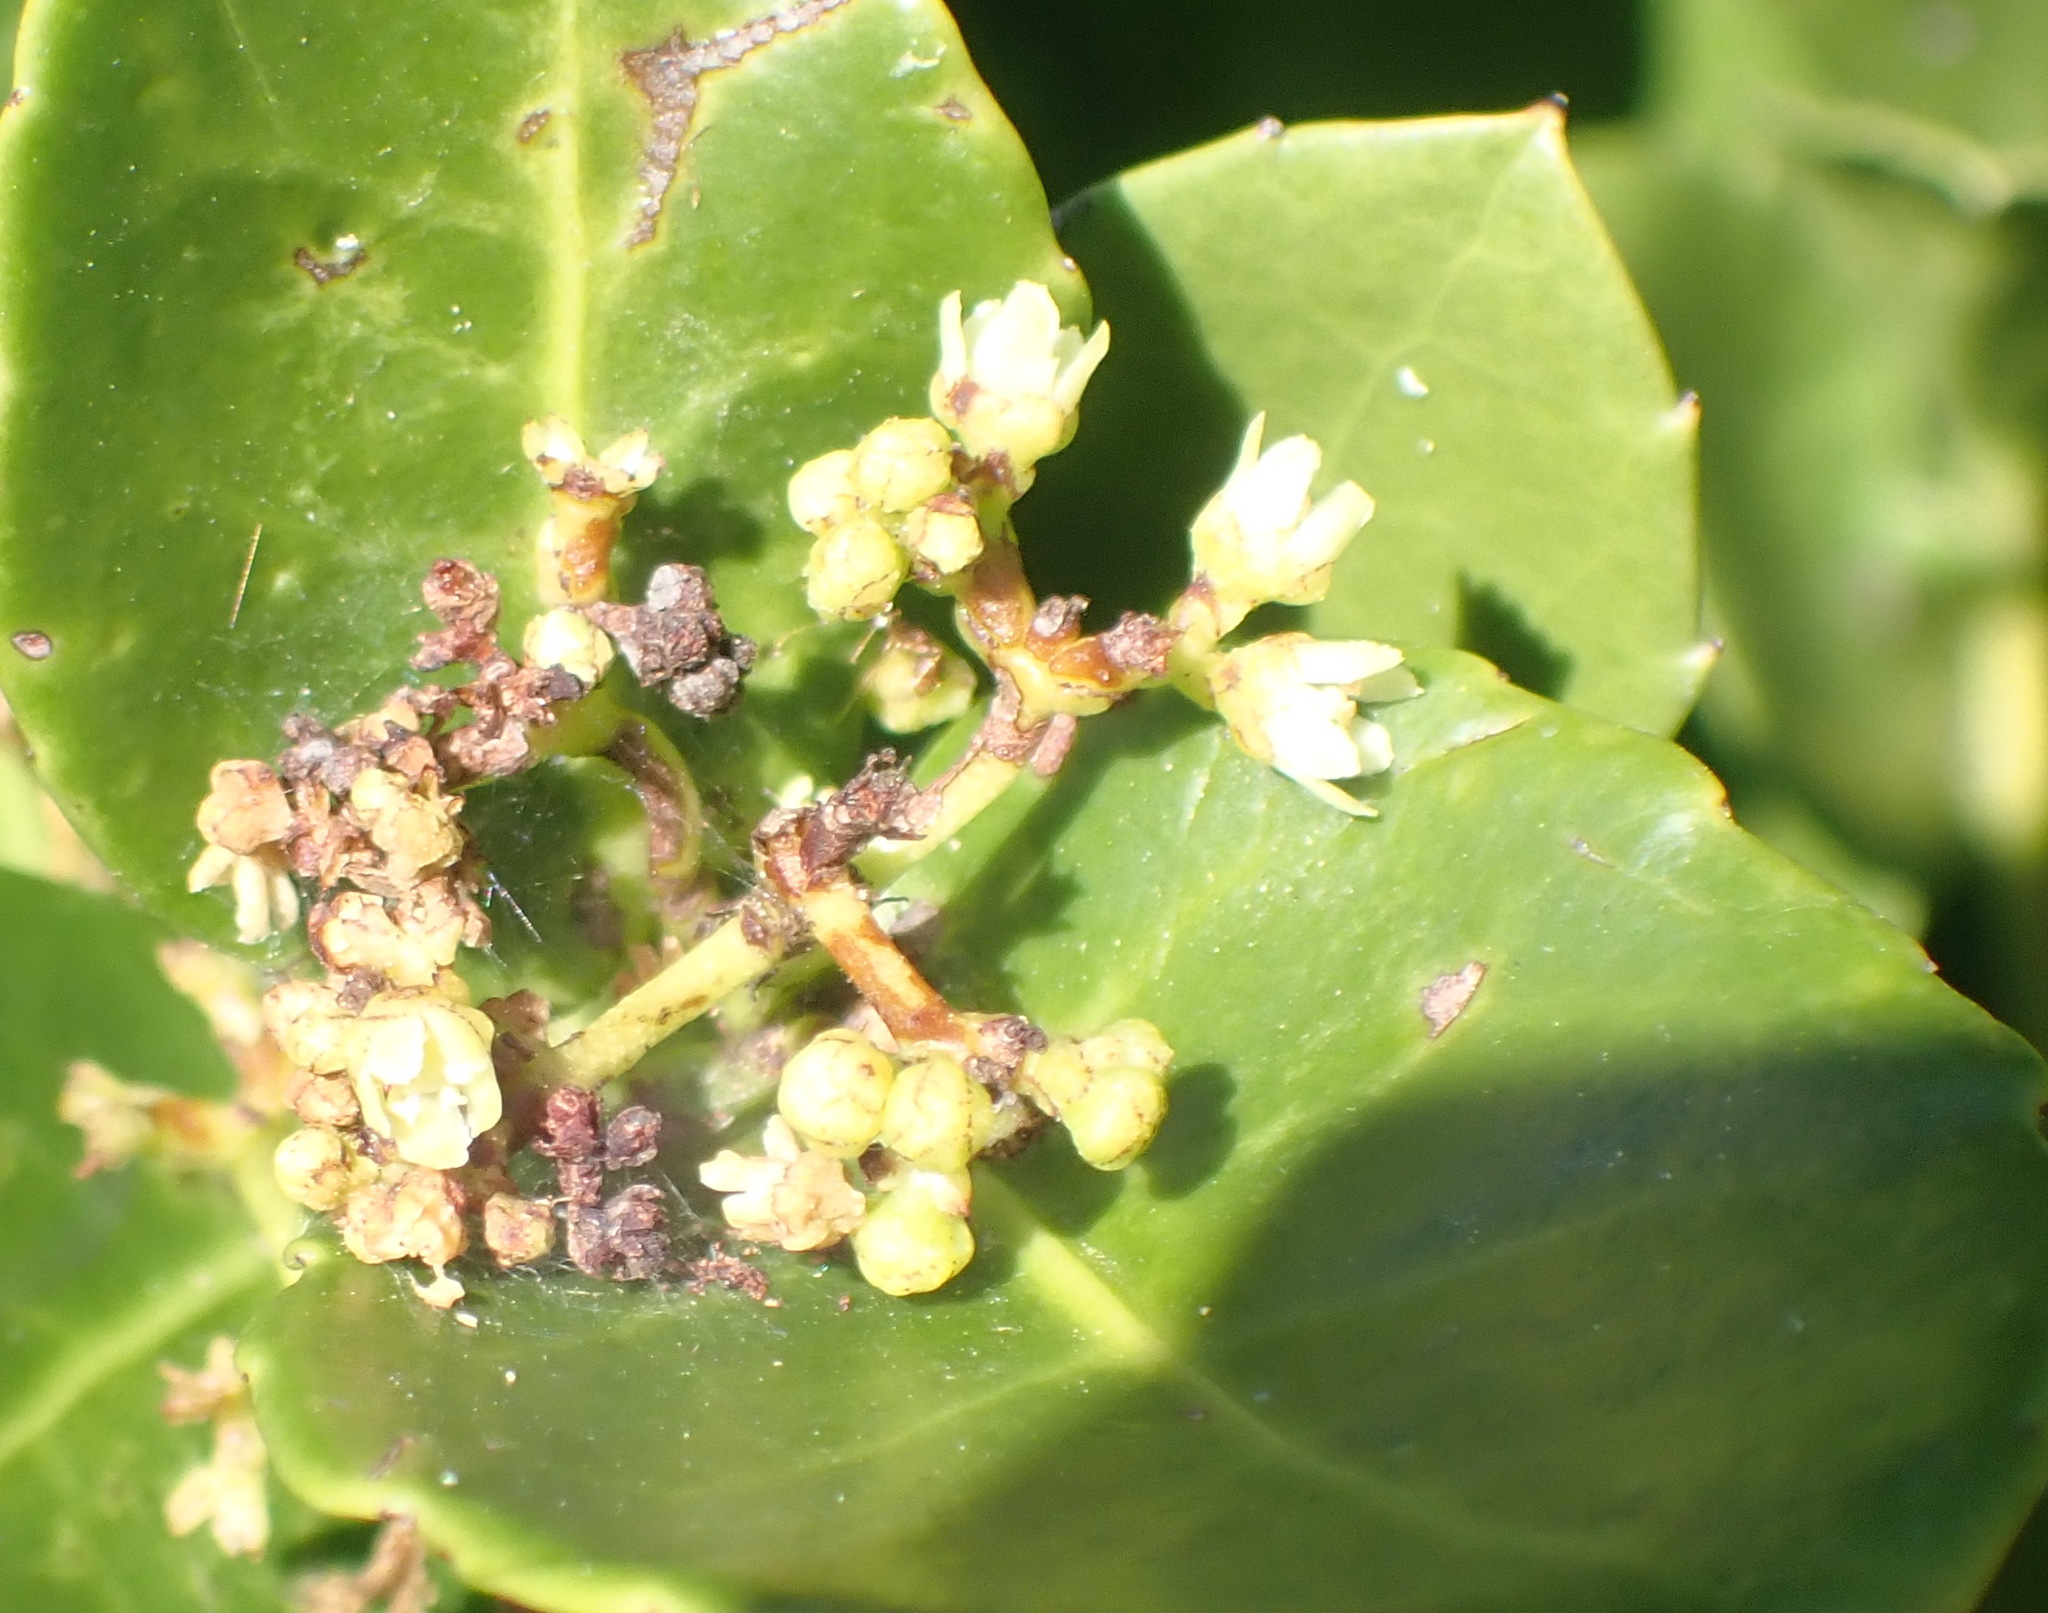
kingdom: Plantae
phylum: Tracheophyta
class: Magnoliopsida
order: Celastrales
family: Celastraceae
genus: Lauridia
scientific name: Lauridia tetragona
